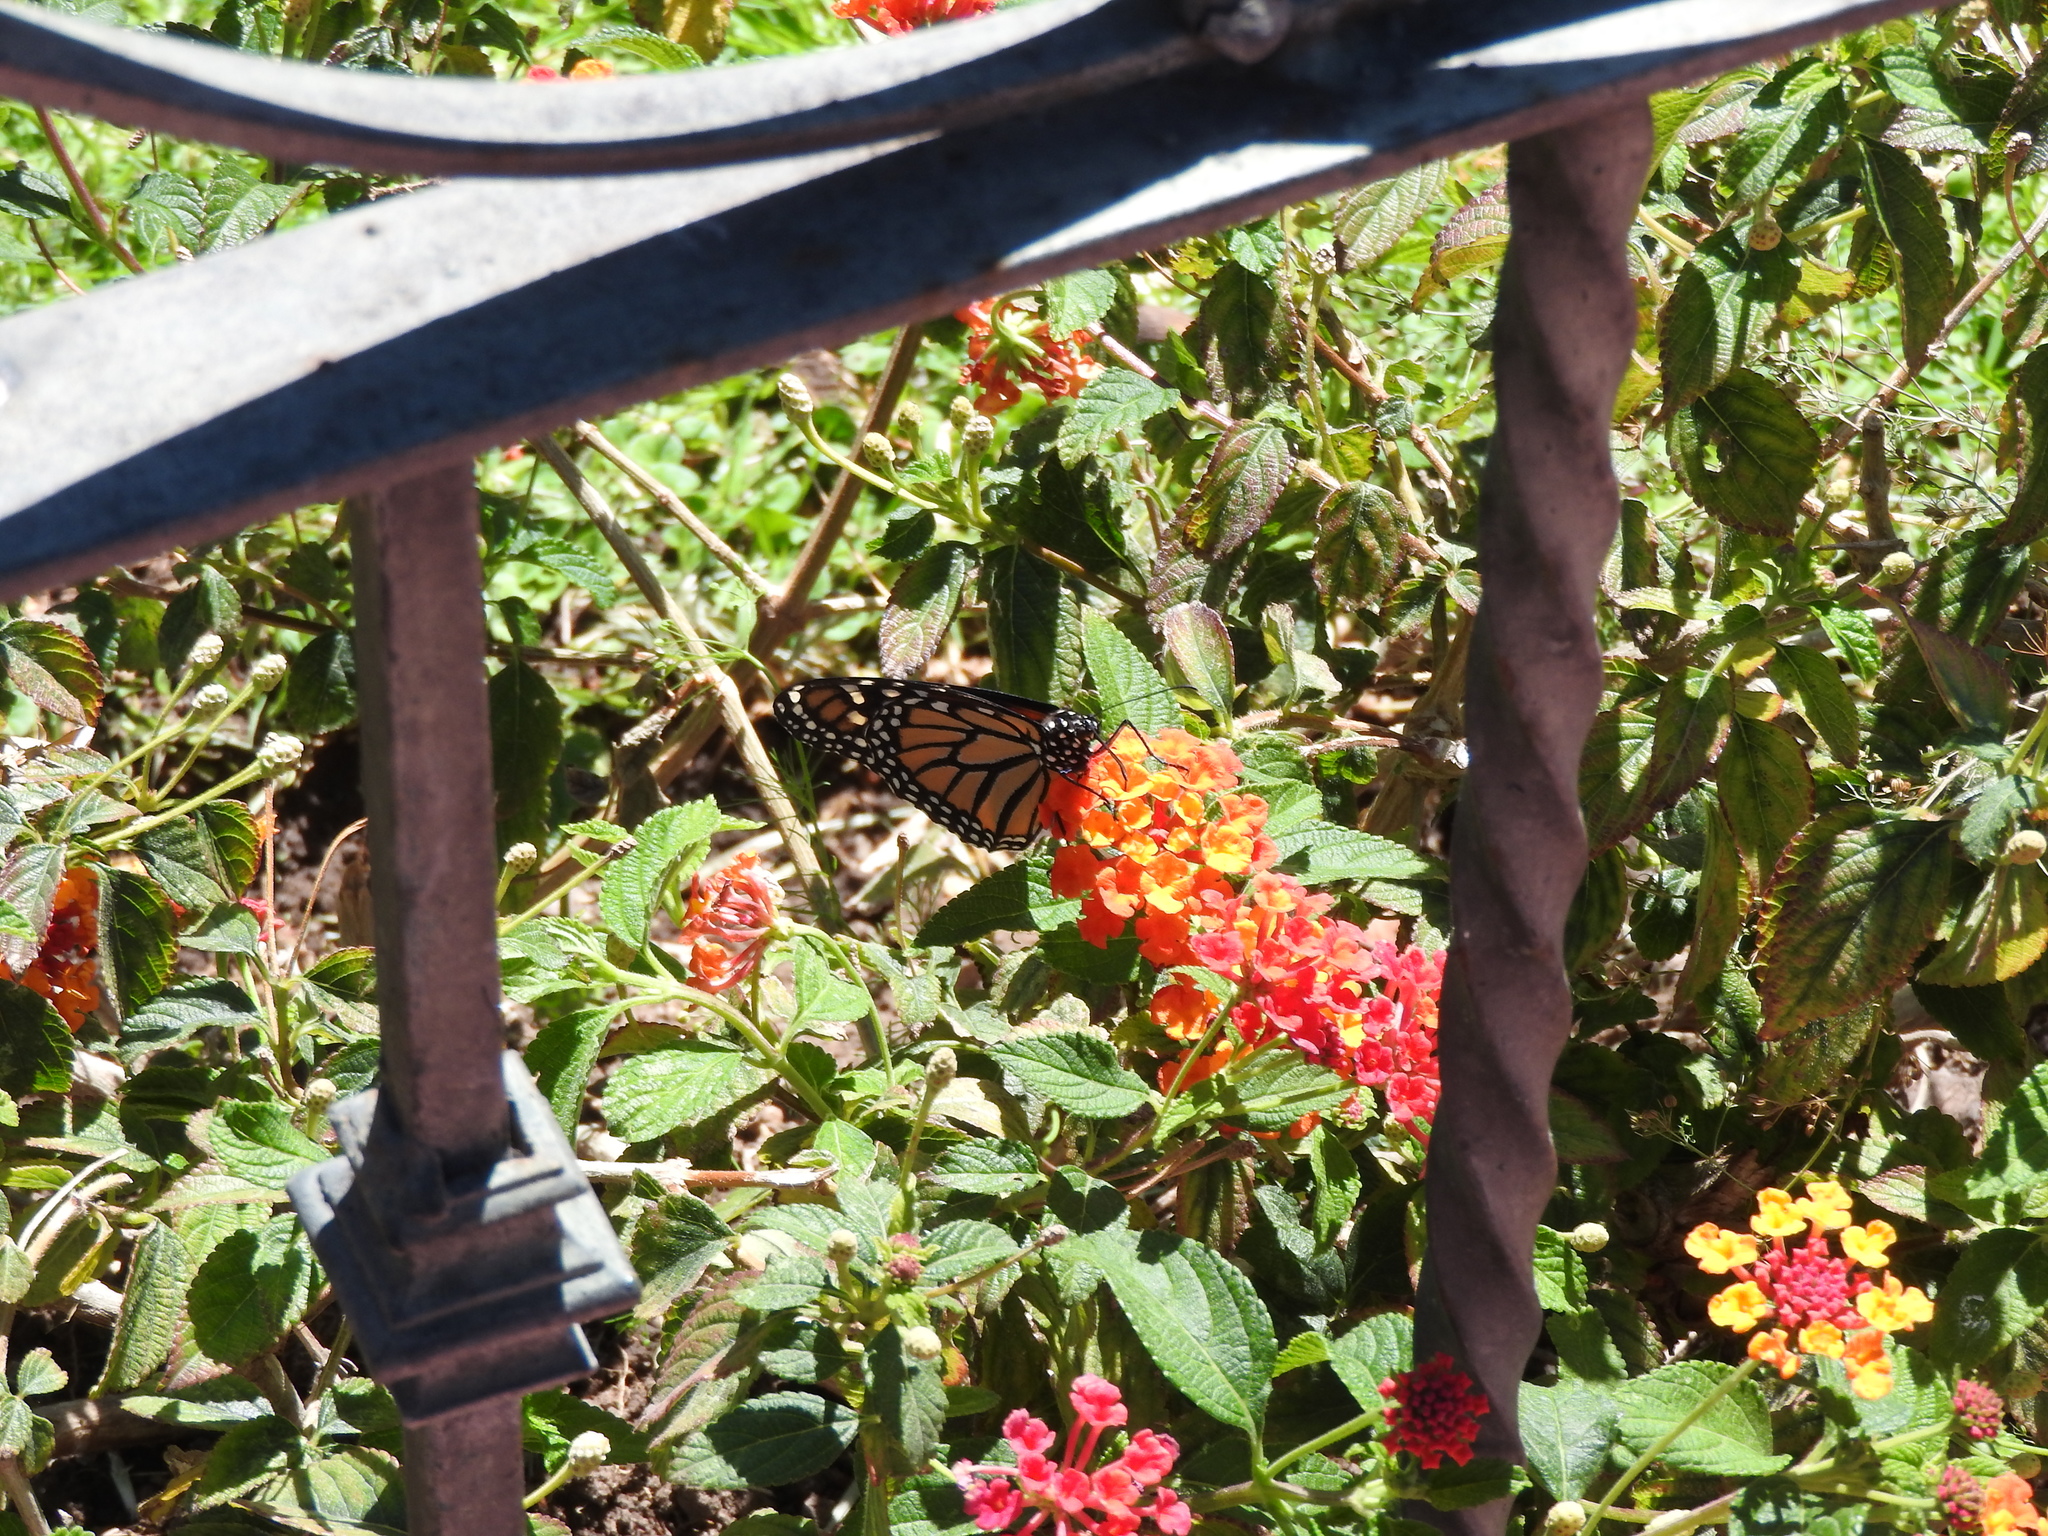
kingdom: Animalia
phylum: Arthropoda
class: Insecta
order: Lepidoptera
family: Nymphalidae
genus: Danaus
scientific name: Danaus plexippus
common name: Monarch
